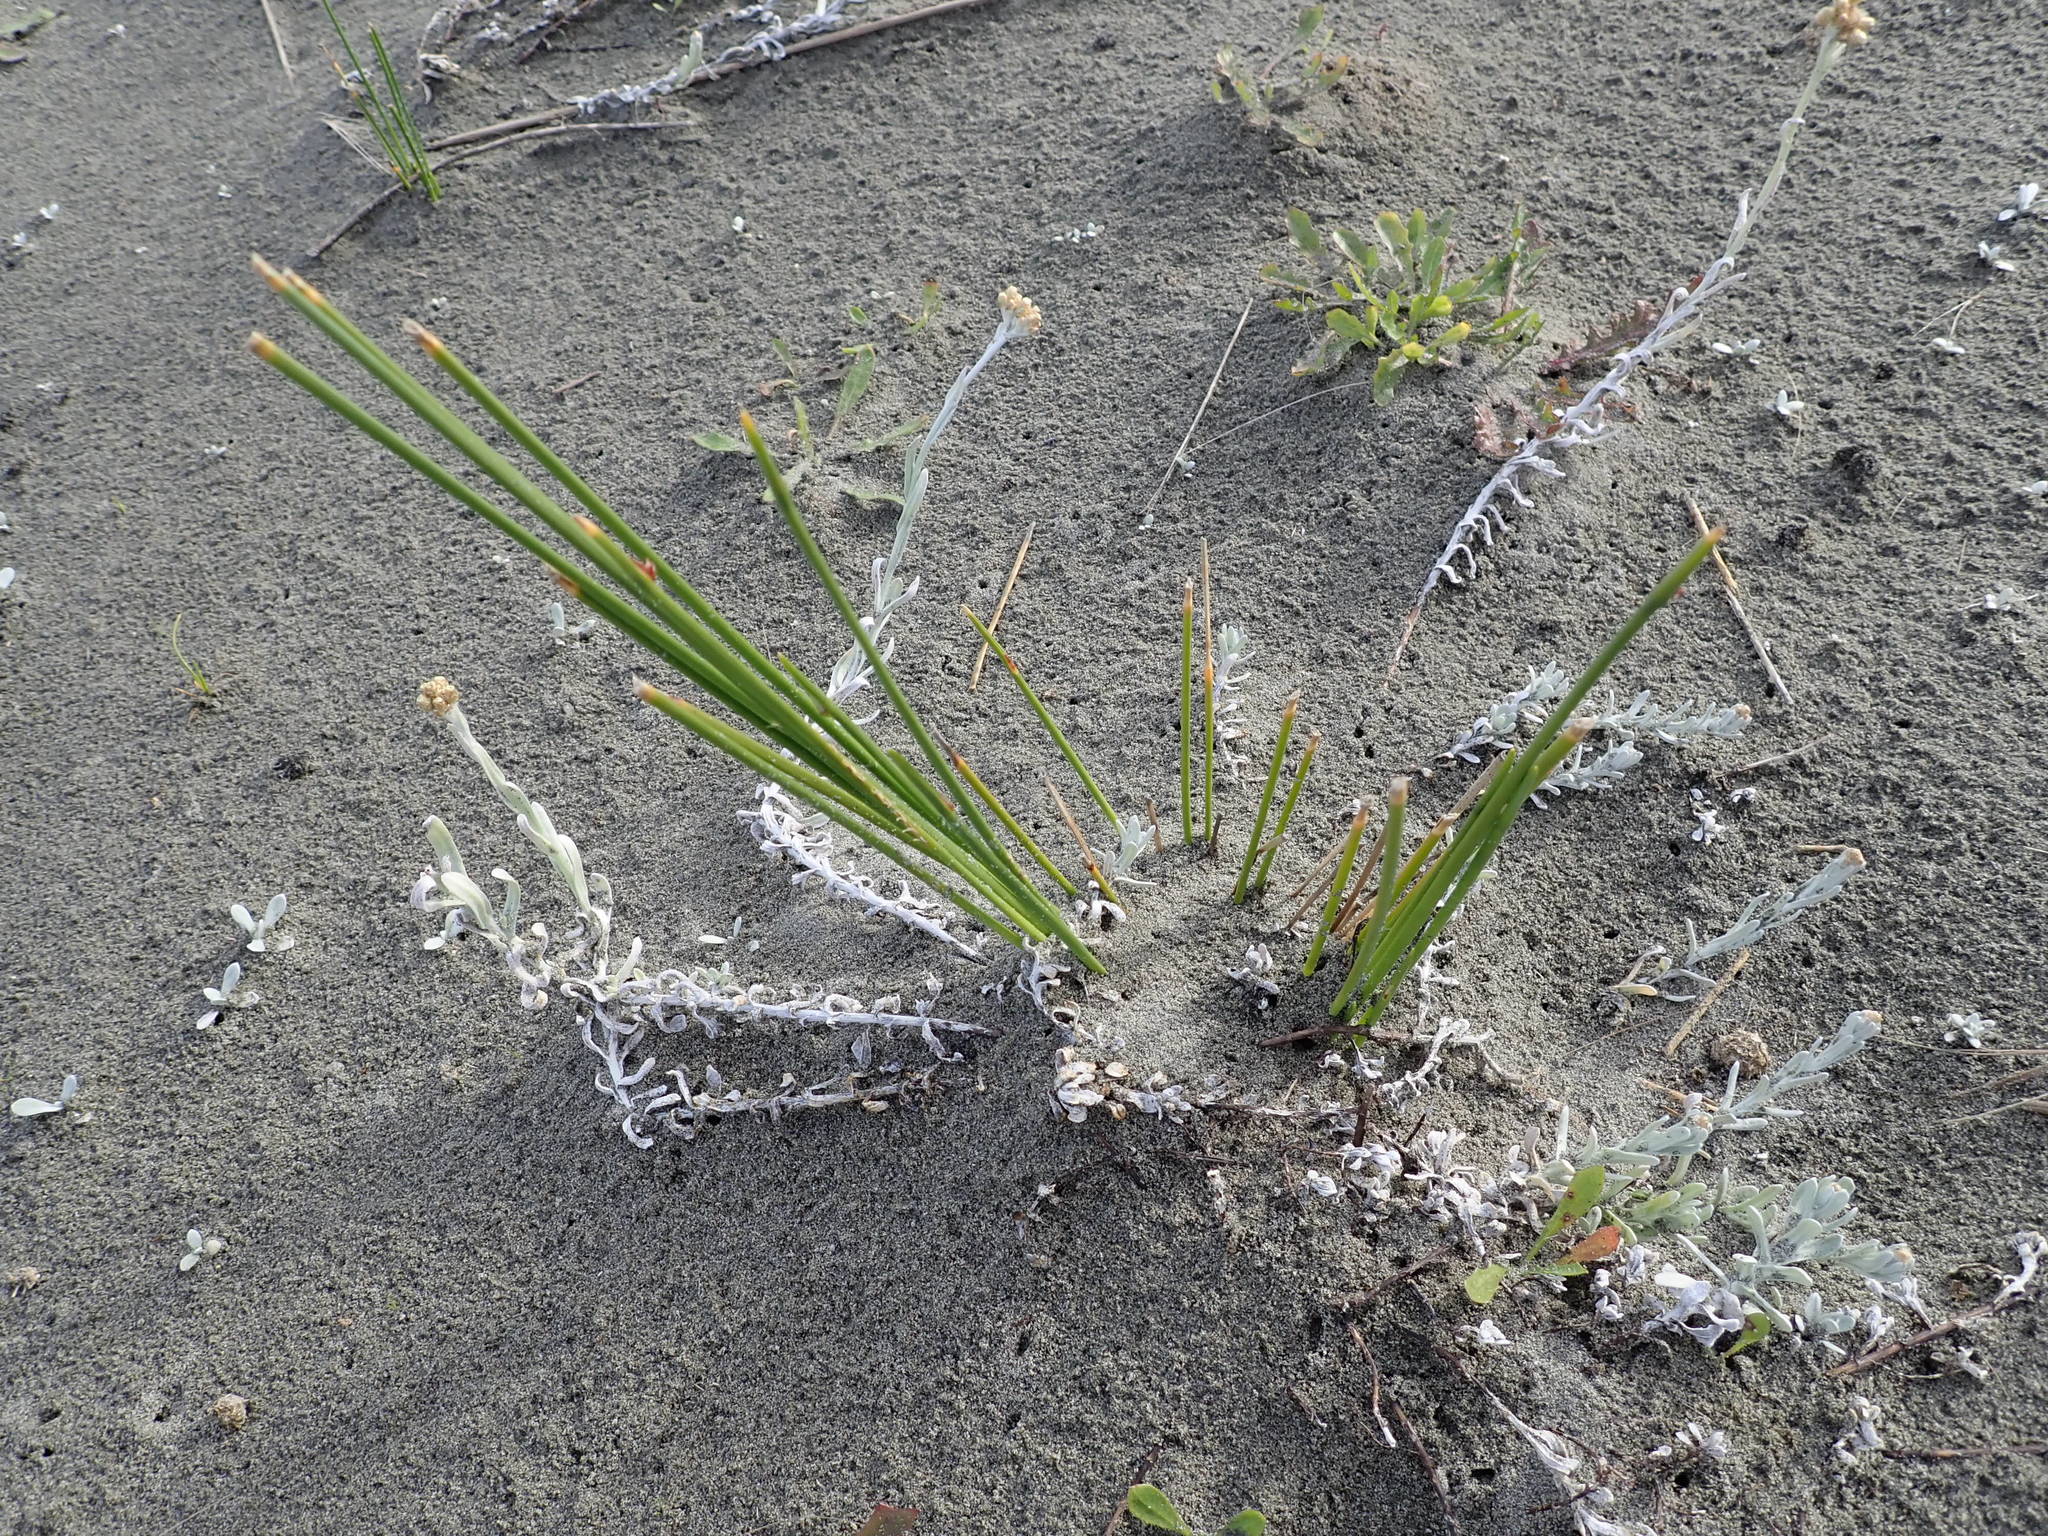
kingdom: Plantae
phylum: Tracheophyta
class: Liliopsida
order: Poales
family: Cyperaceae
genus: Ficinia
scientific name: Ficinia nodosa
